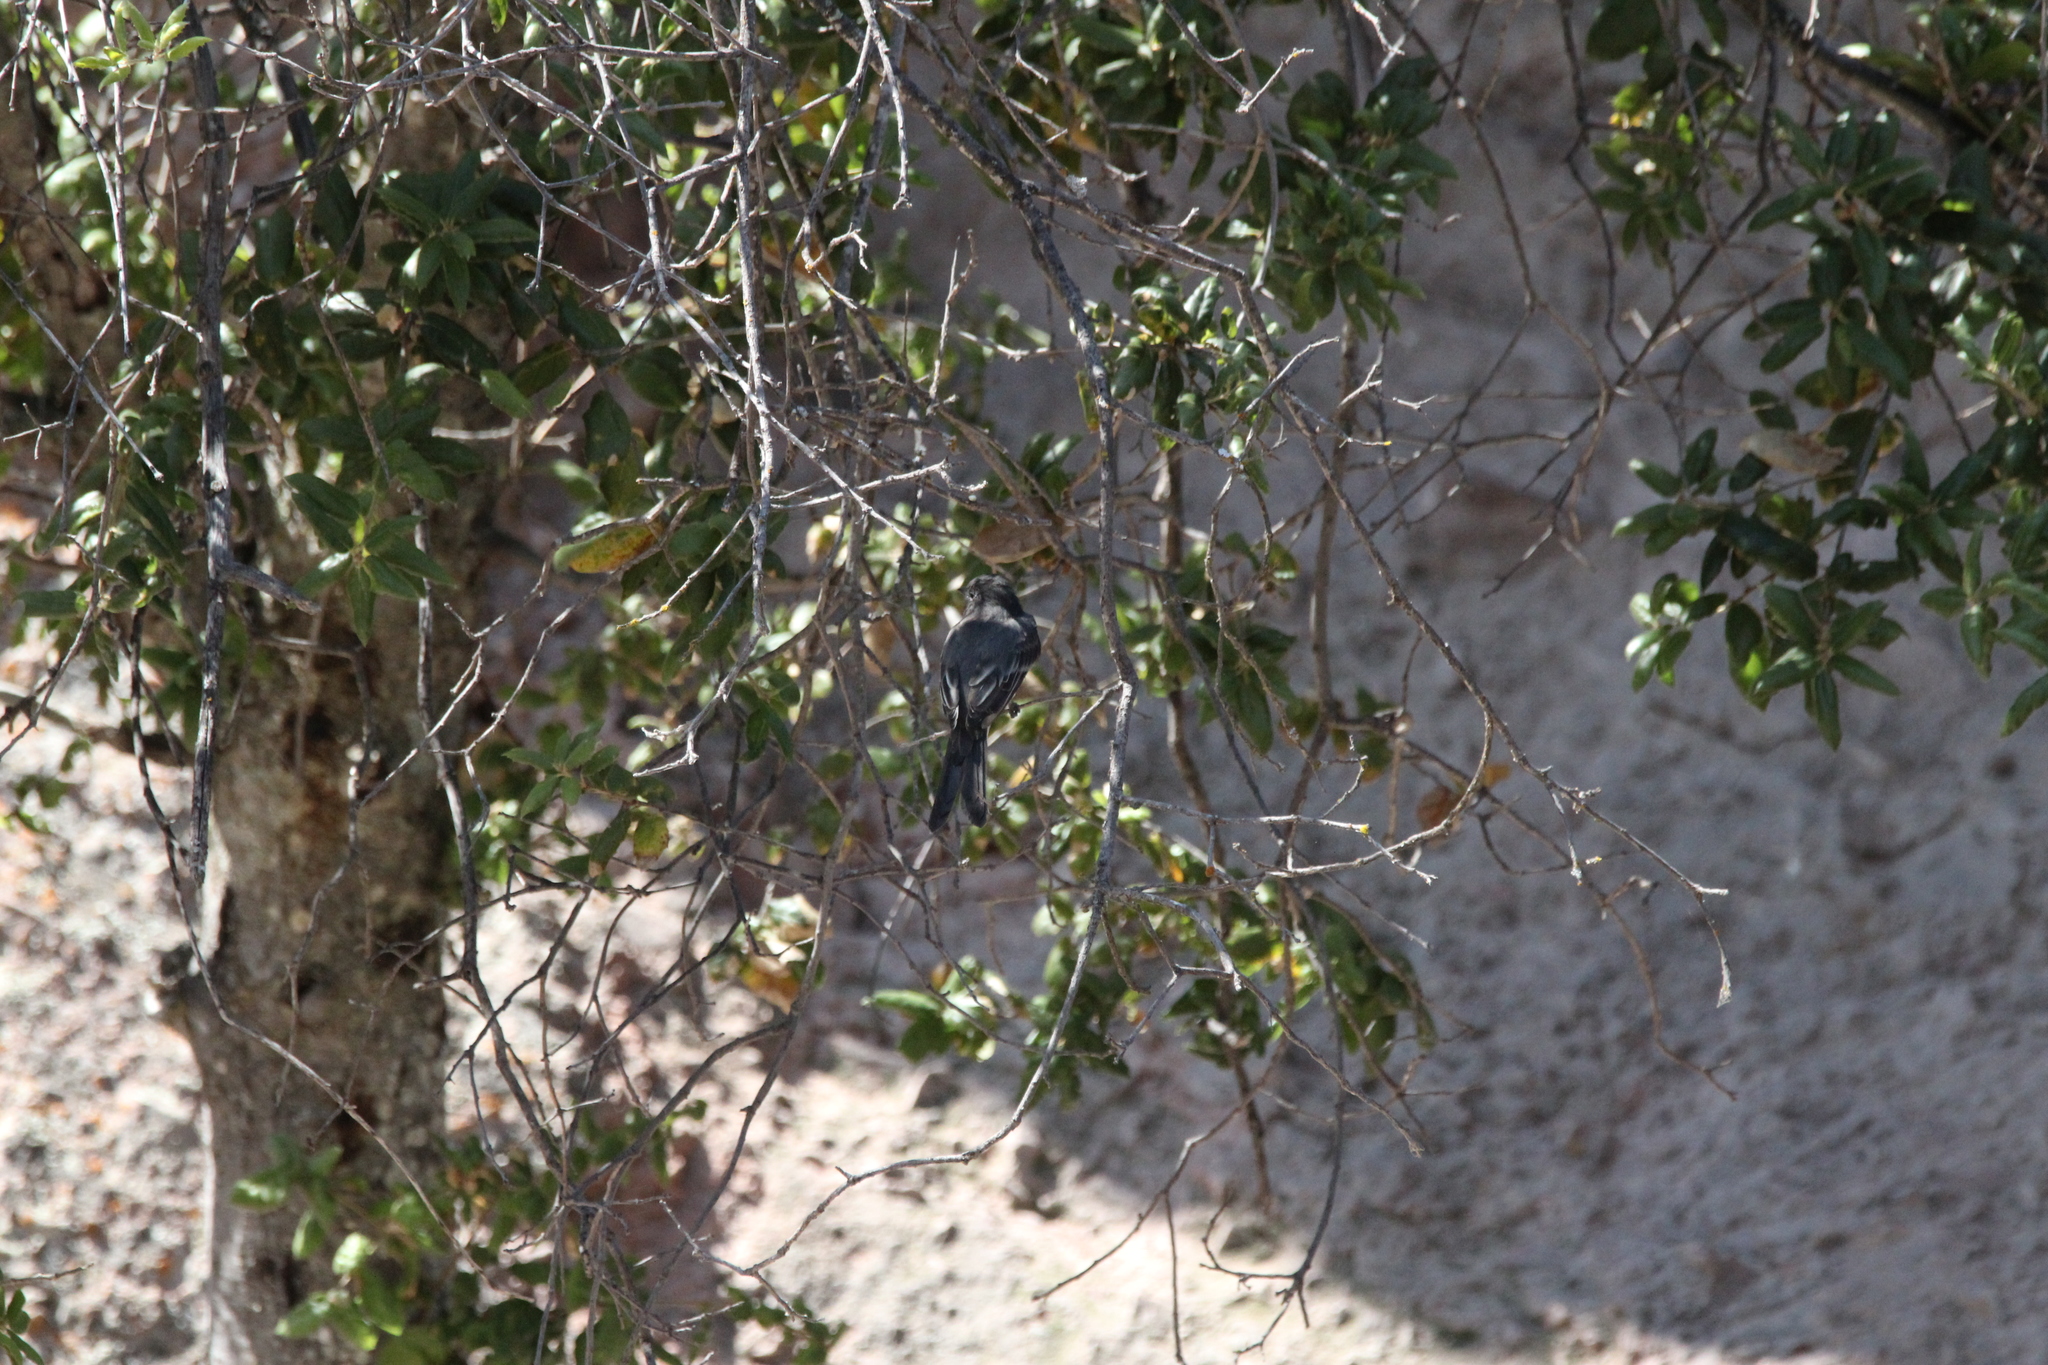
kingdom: Animalia
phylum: Chordata
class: Aves
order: Passeriformes
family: Tyrannidae
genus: Sayornis
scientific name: Sayornis nigricans
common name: Black phoebe
